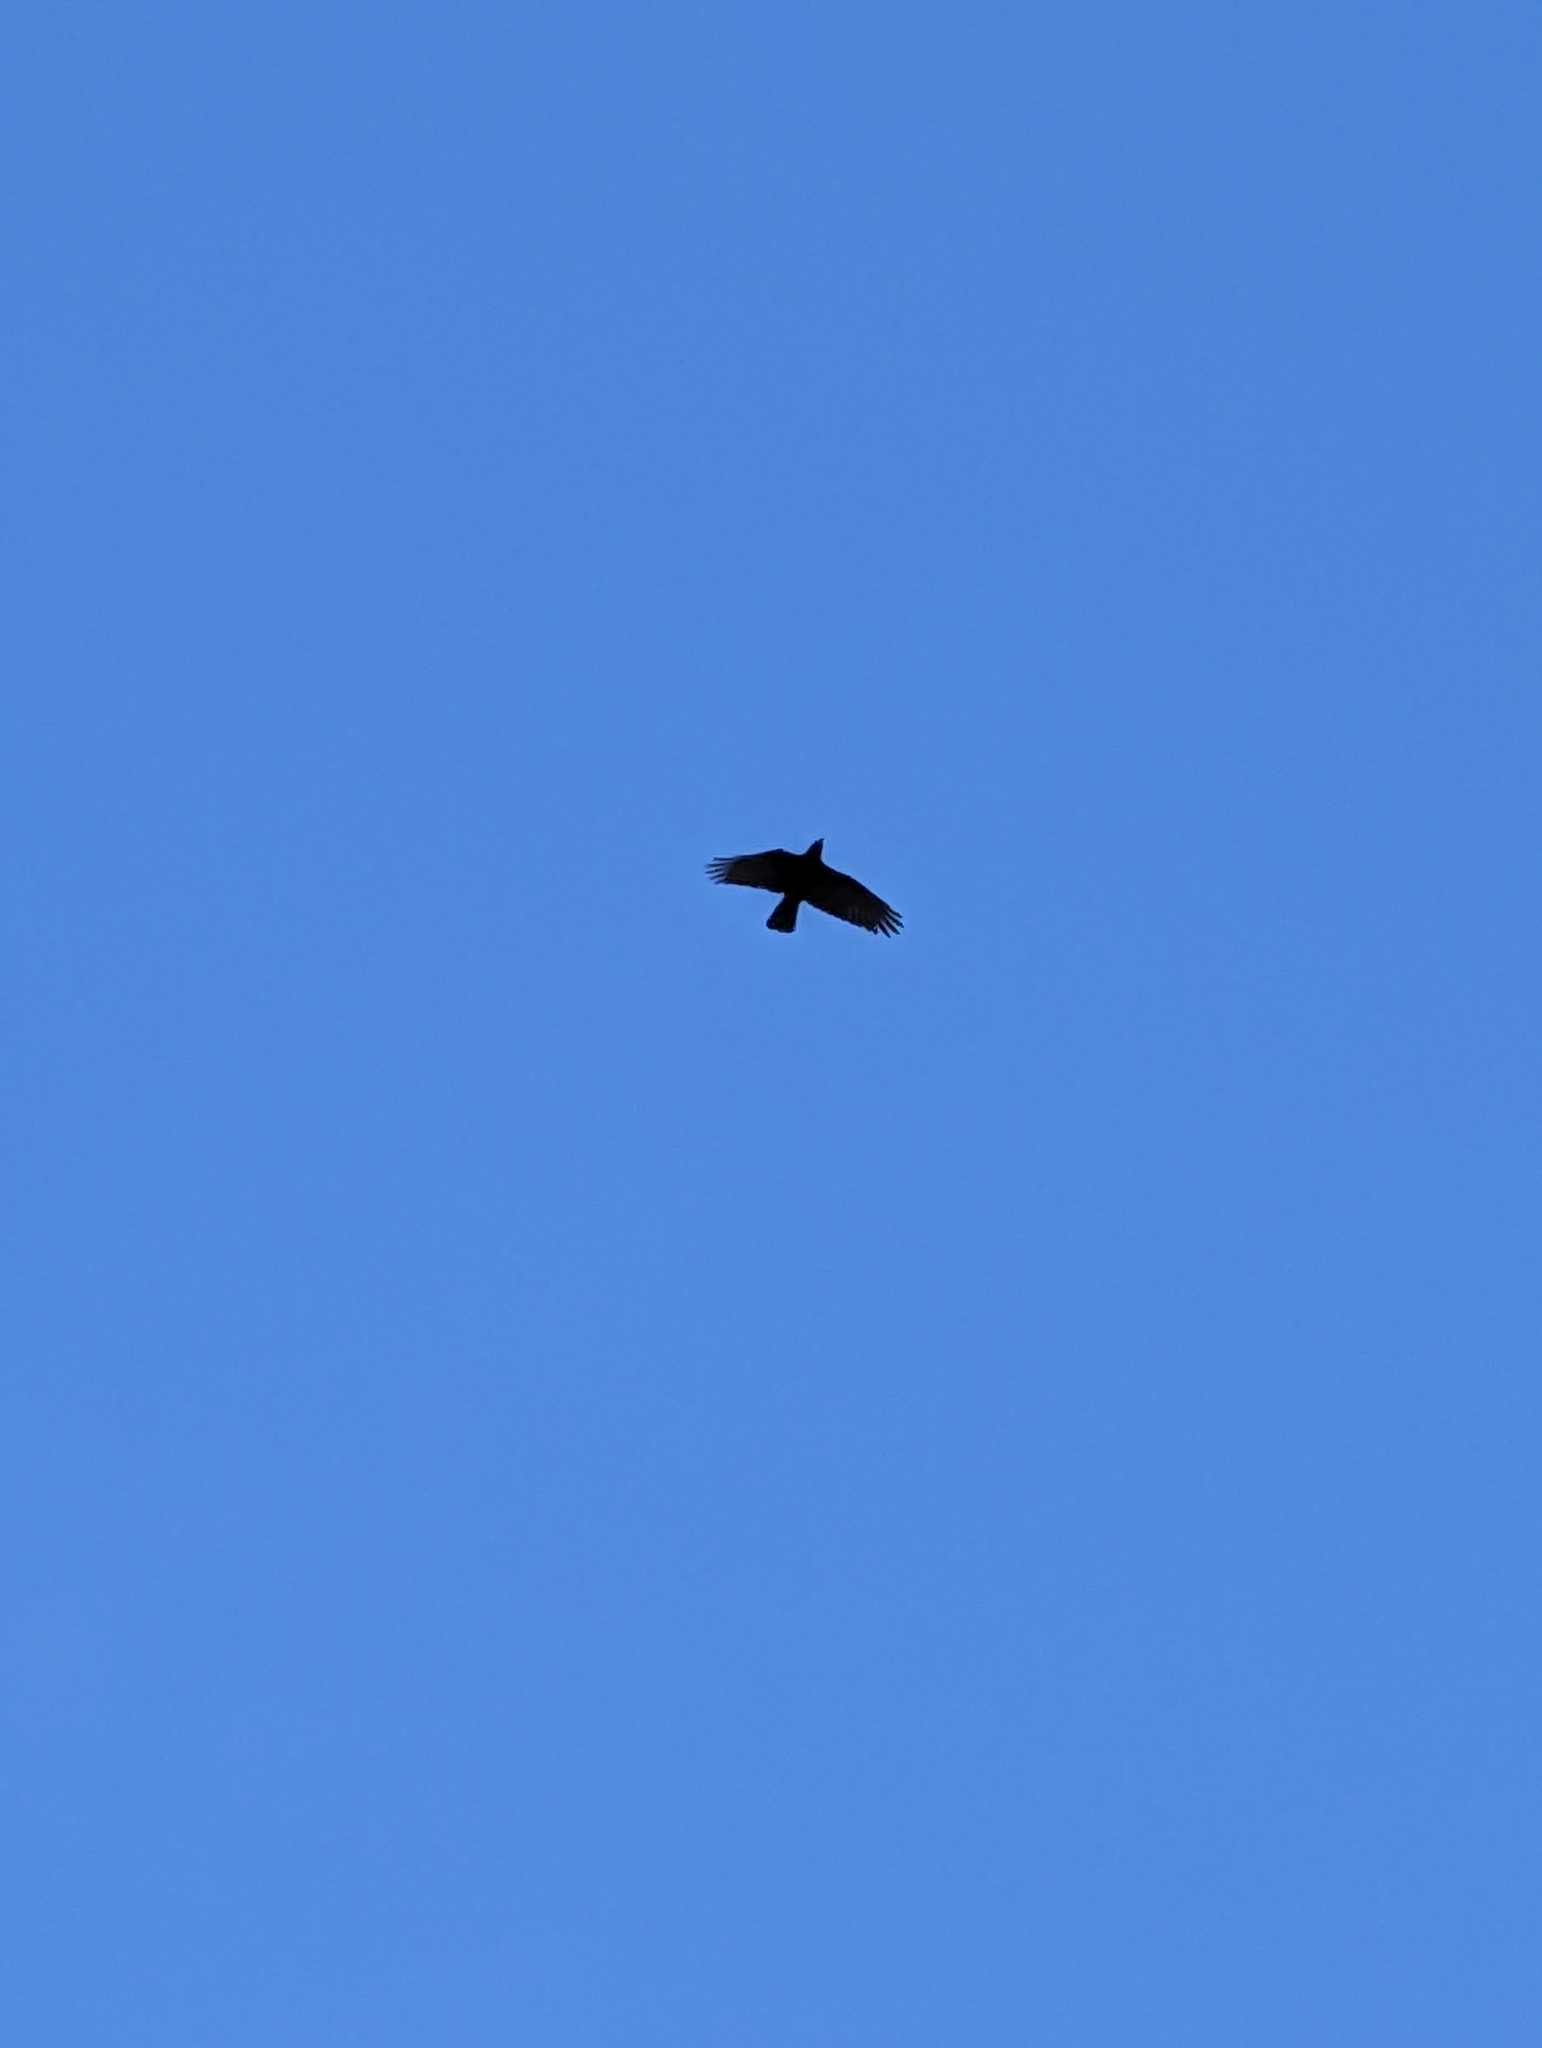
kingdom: Animalia
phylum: Chordata
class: Aves
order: Passeriformes
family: Corvidae
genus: Corvus
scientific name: Corvus brachyrhynchos
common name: American crow
